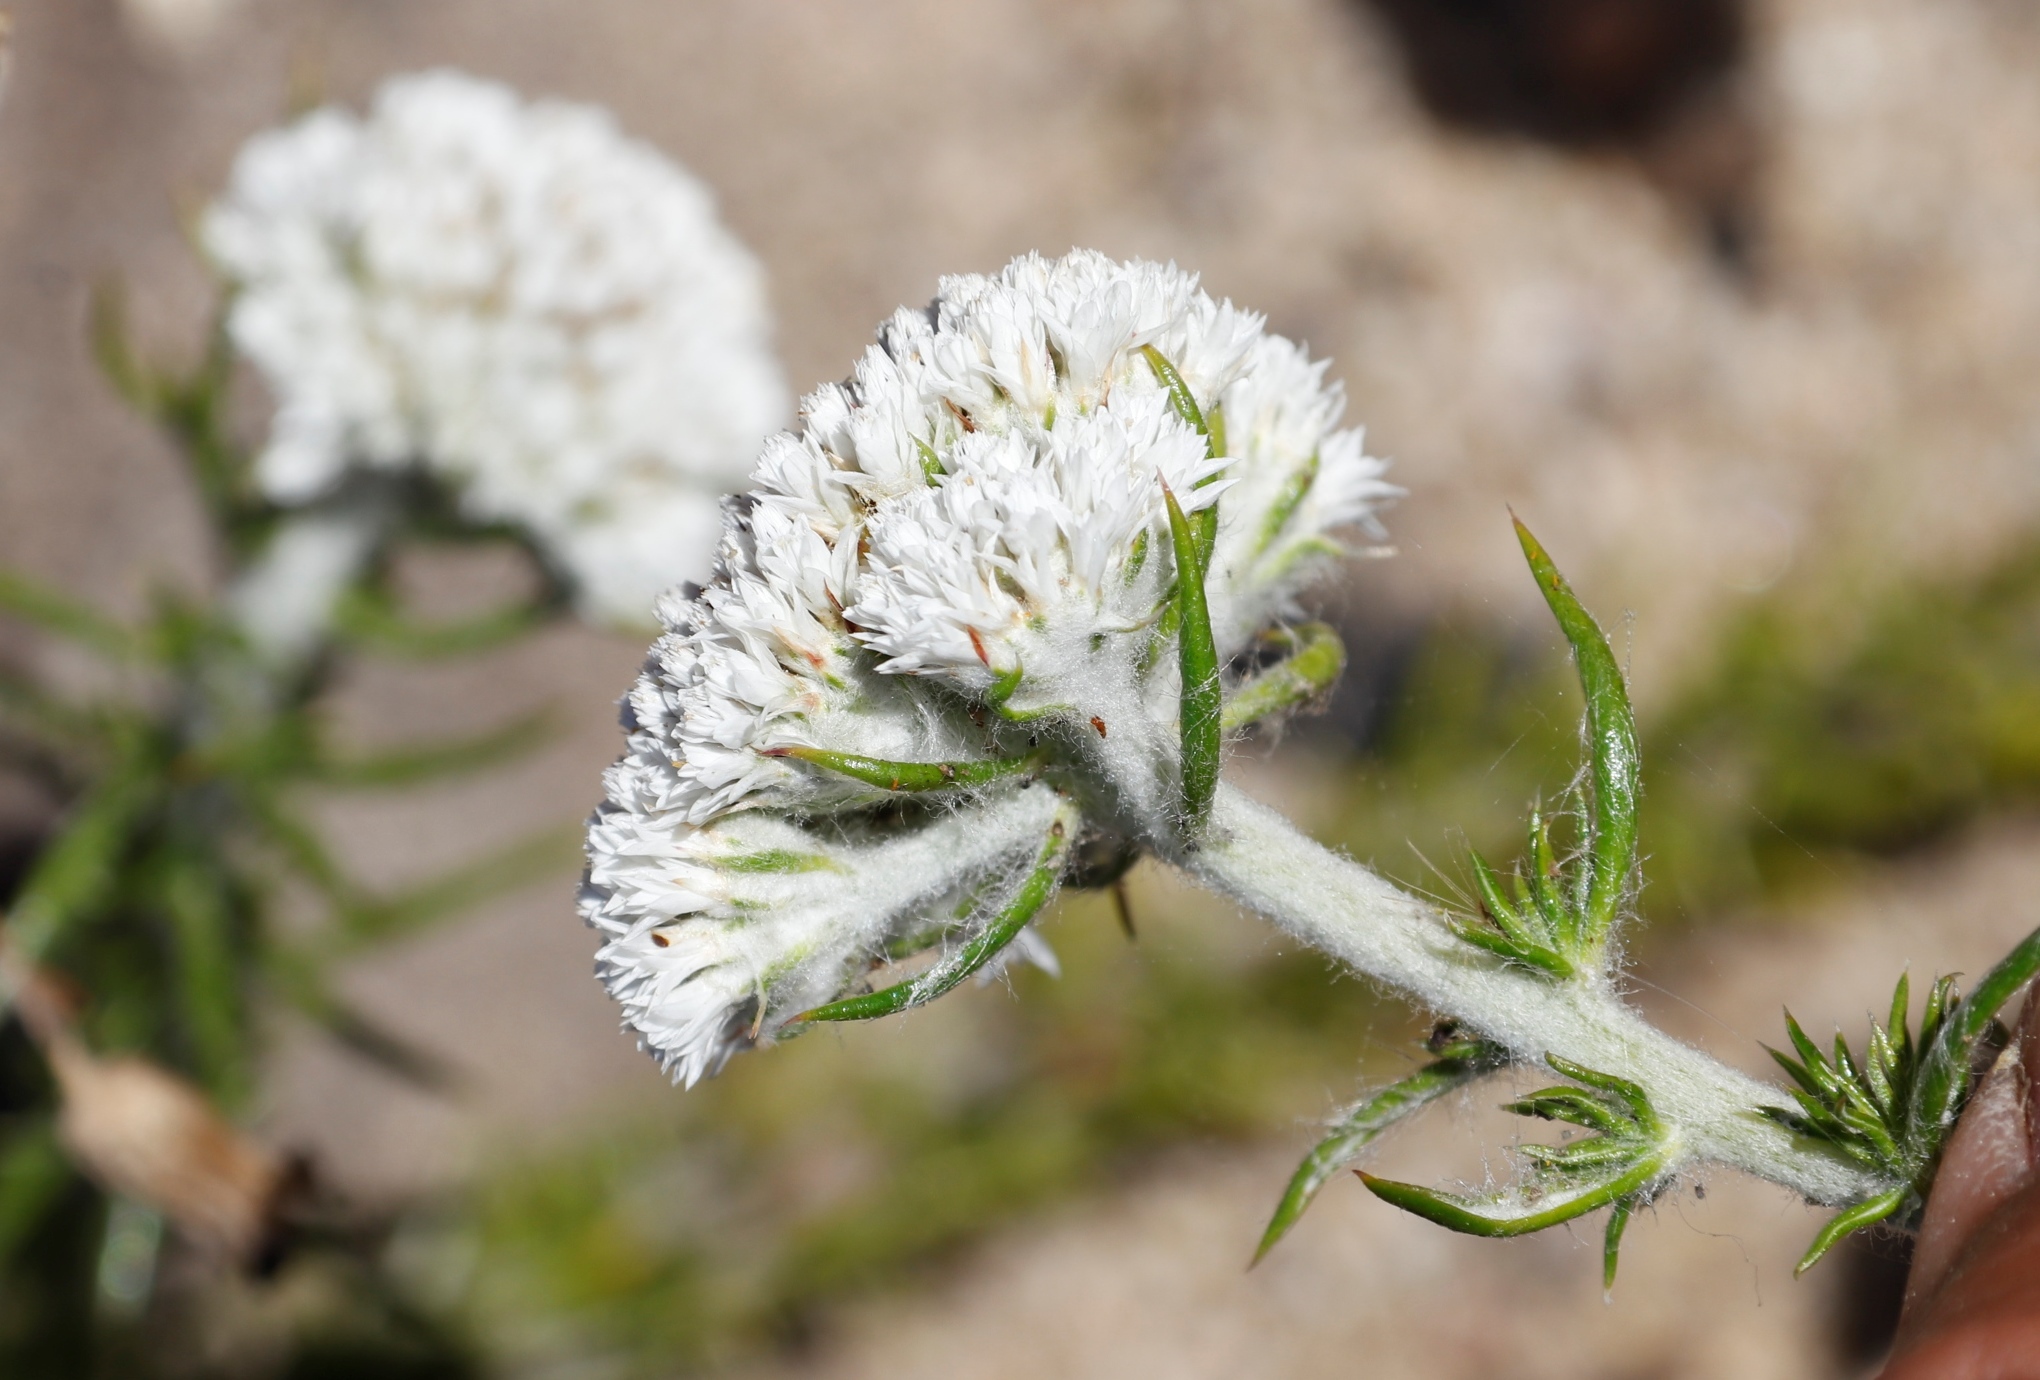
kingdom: Plantae
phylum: Tracheophyta
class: Magnoliopsida
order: Asterales
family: Asteraceae
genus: Metalasia
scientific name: Metalasia pulchella
